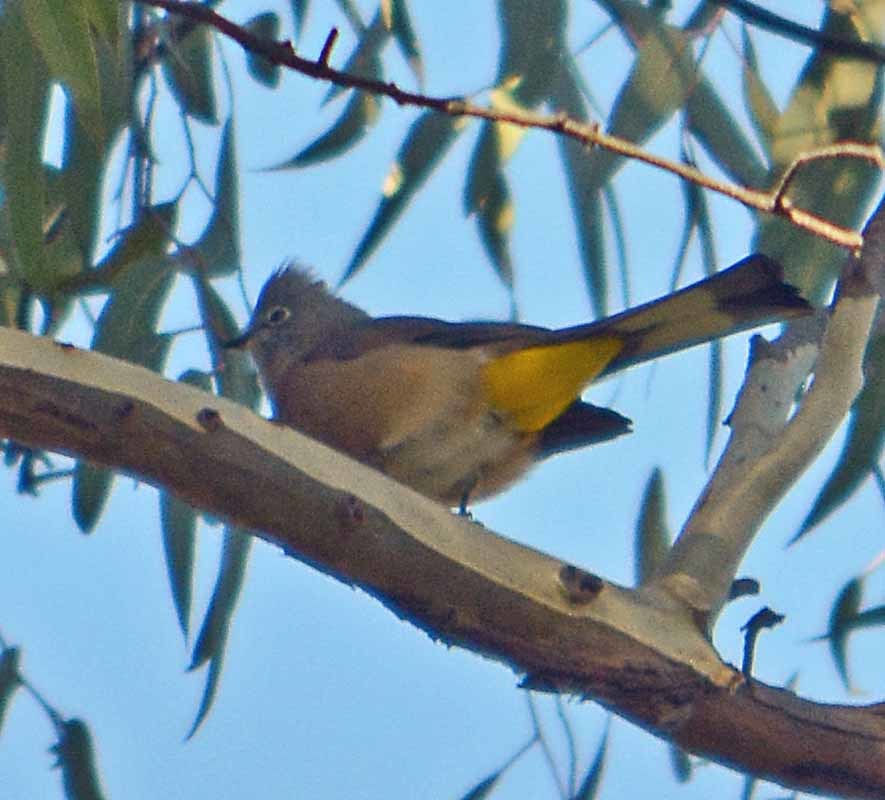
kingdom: Animalia
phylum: Chordata
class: Aves
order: Passeriformes
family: Ptilogonatidae
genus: Ptilogonys
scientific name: Ptilogonys cinereus
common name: Gray silky-flycatcher
